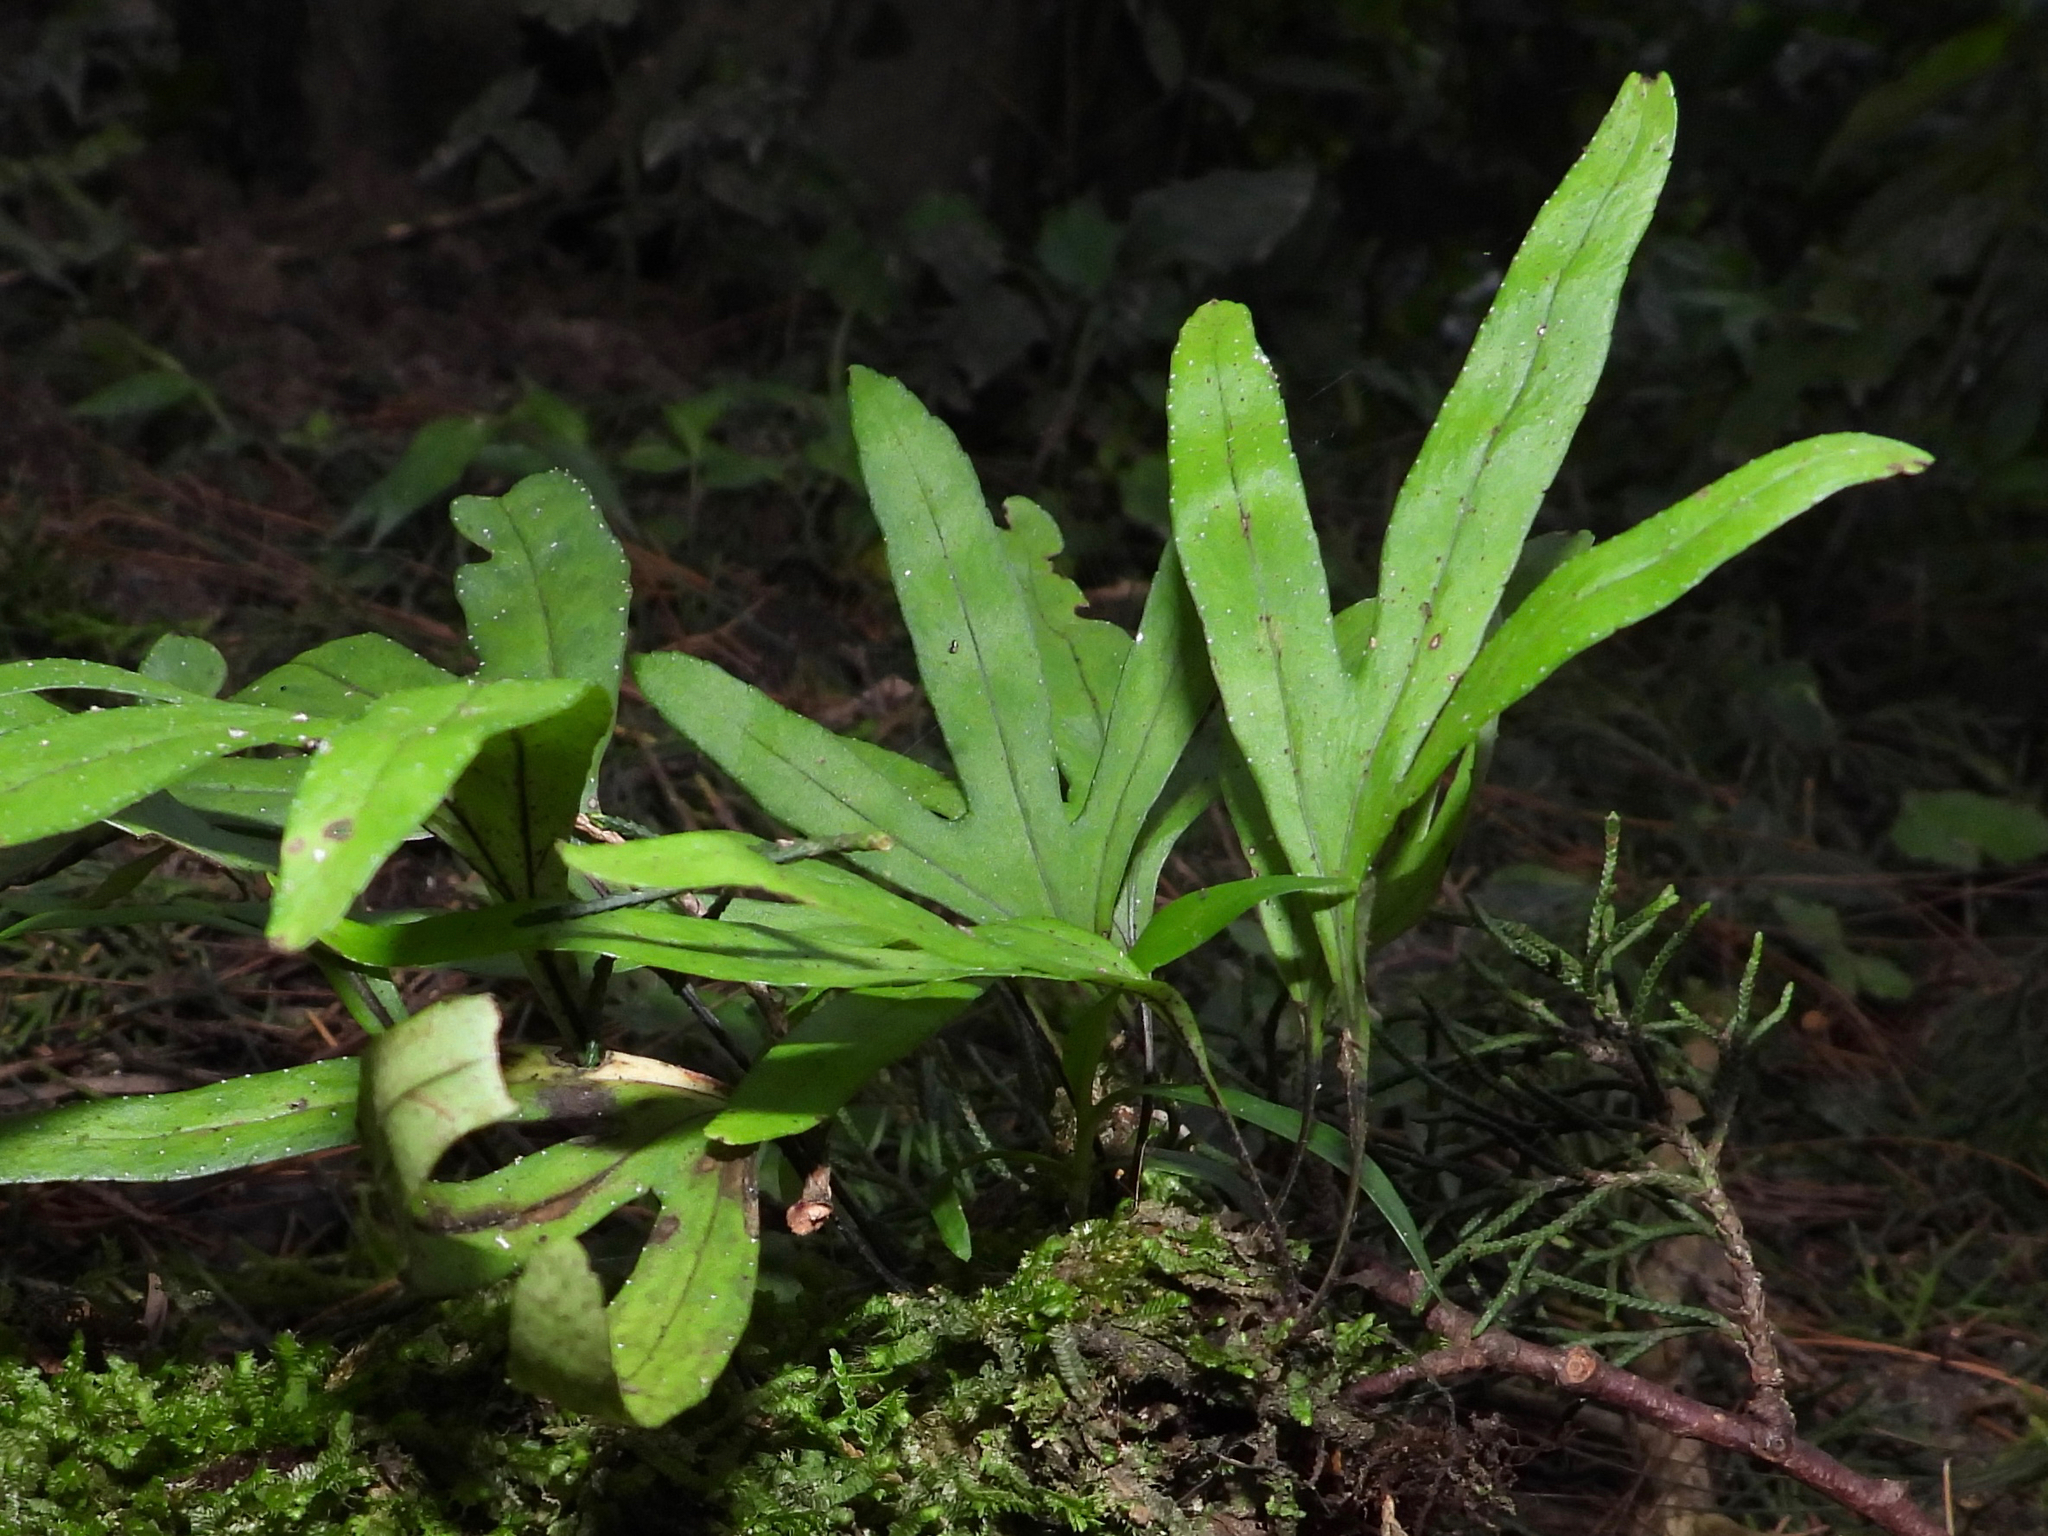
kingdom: Plantae
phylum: Tracheophyta
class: Polypodiopsida
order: Polypodiales
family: Polypodiaceae
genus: Pleopeltis
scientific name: Pleopeltis angusta
